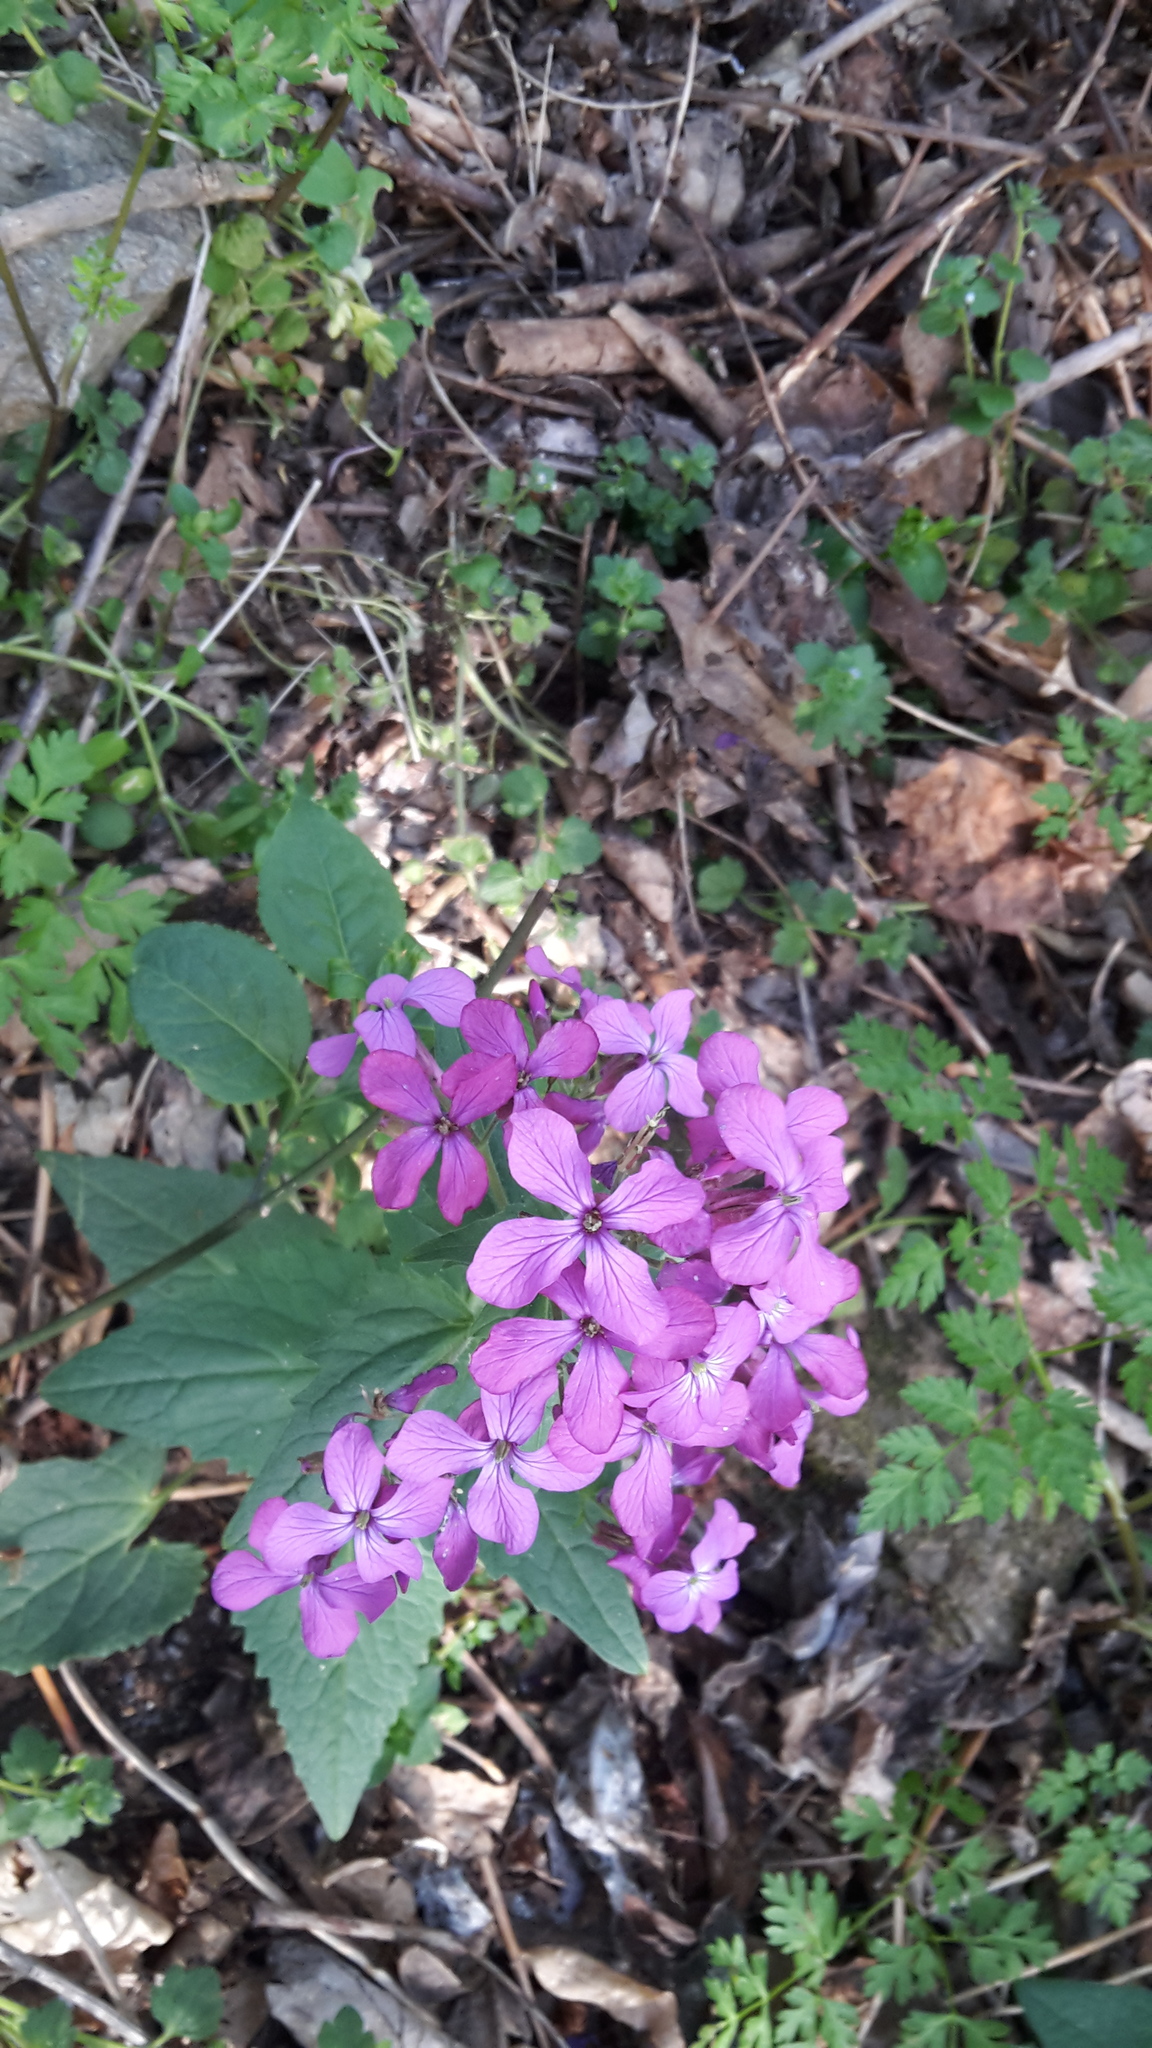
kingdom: Plantae
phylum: Tracheophyta
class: Magnoliopsida
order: Brassicales
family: Brassicaceae
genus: Lunaria
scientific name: Lunaria annua
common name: Honesty
